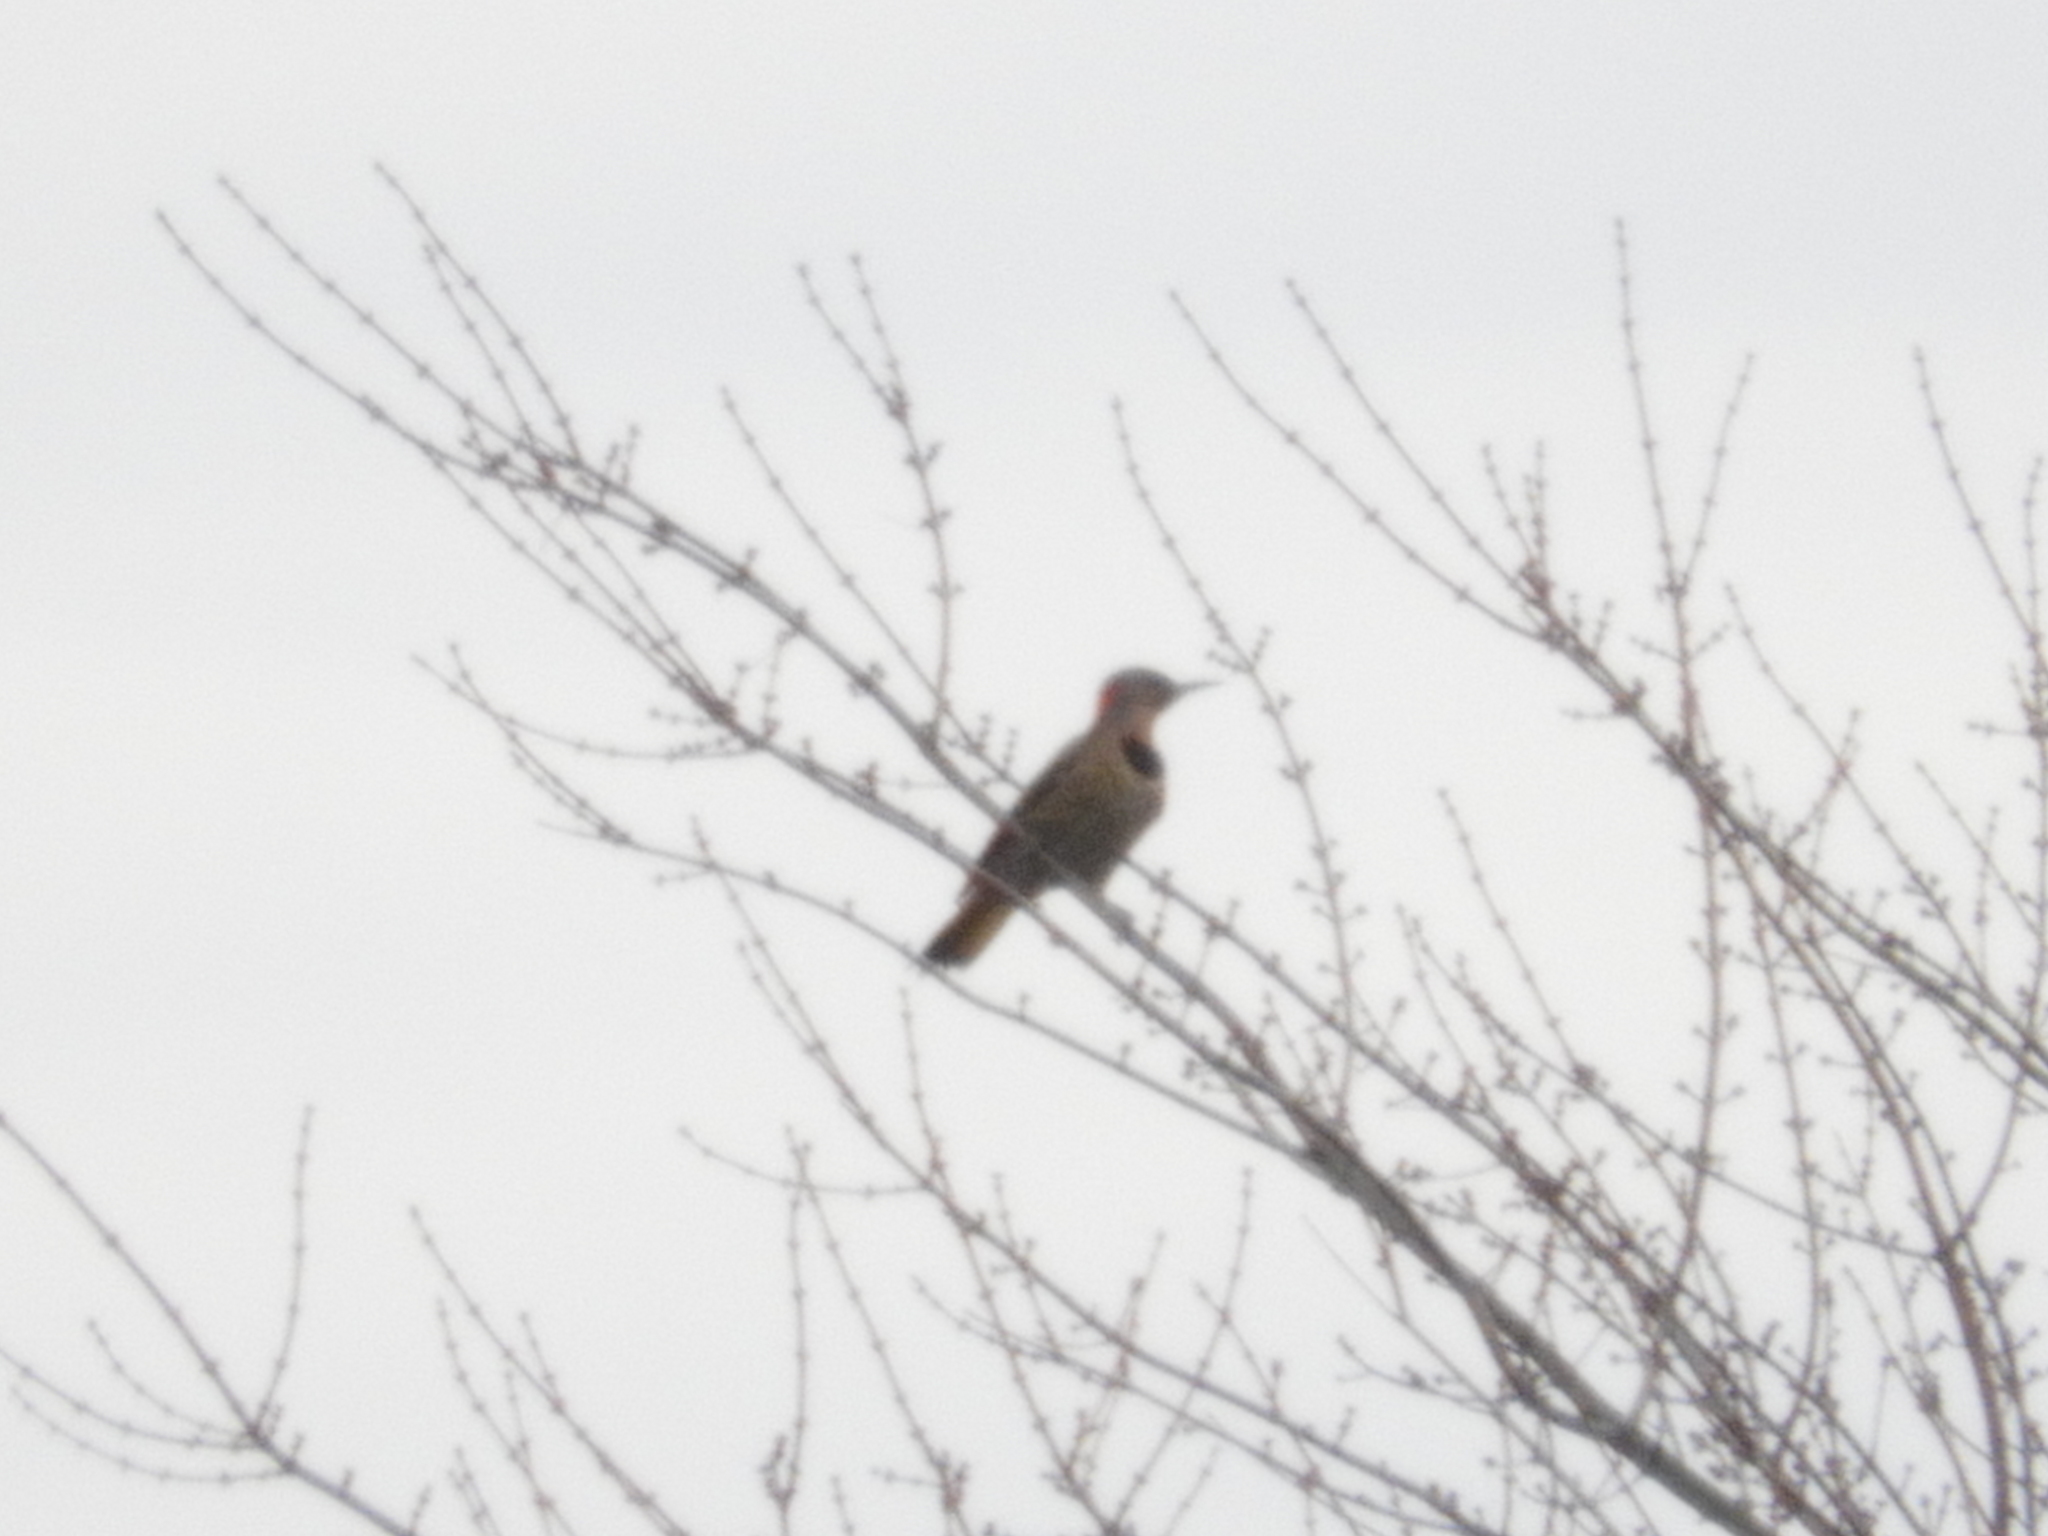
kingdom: Animalia
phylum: Chordata
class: Aves
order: Piciformes
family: Picidae
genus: Colaptes
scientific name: Colaptes auratus
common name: Northern flicker
